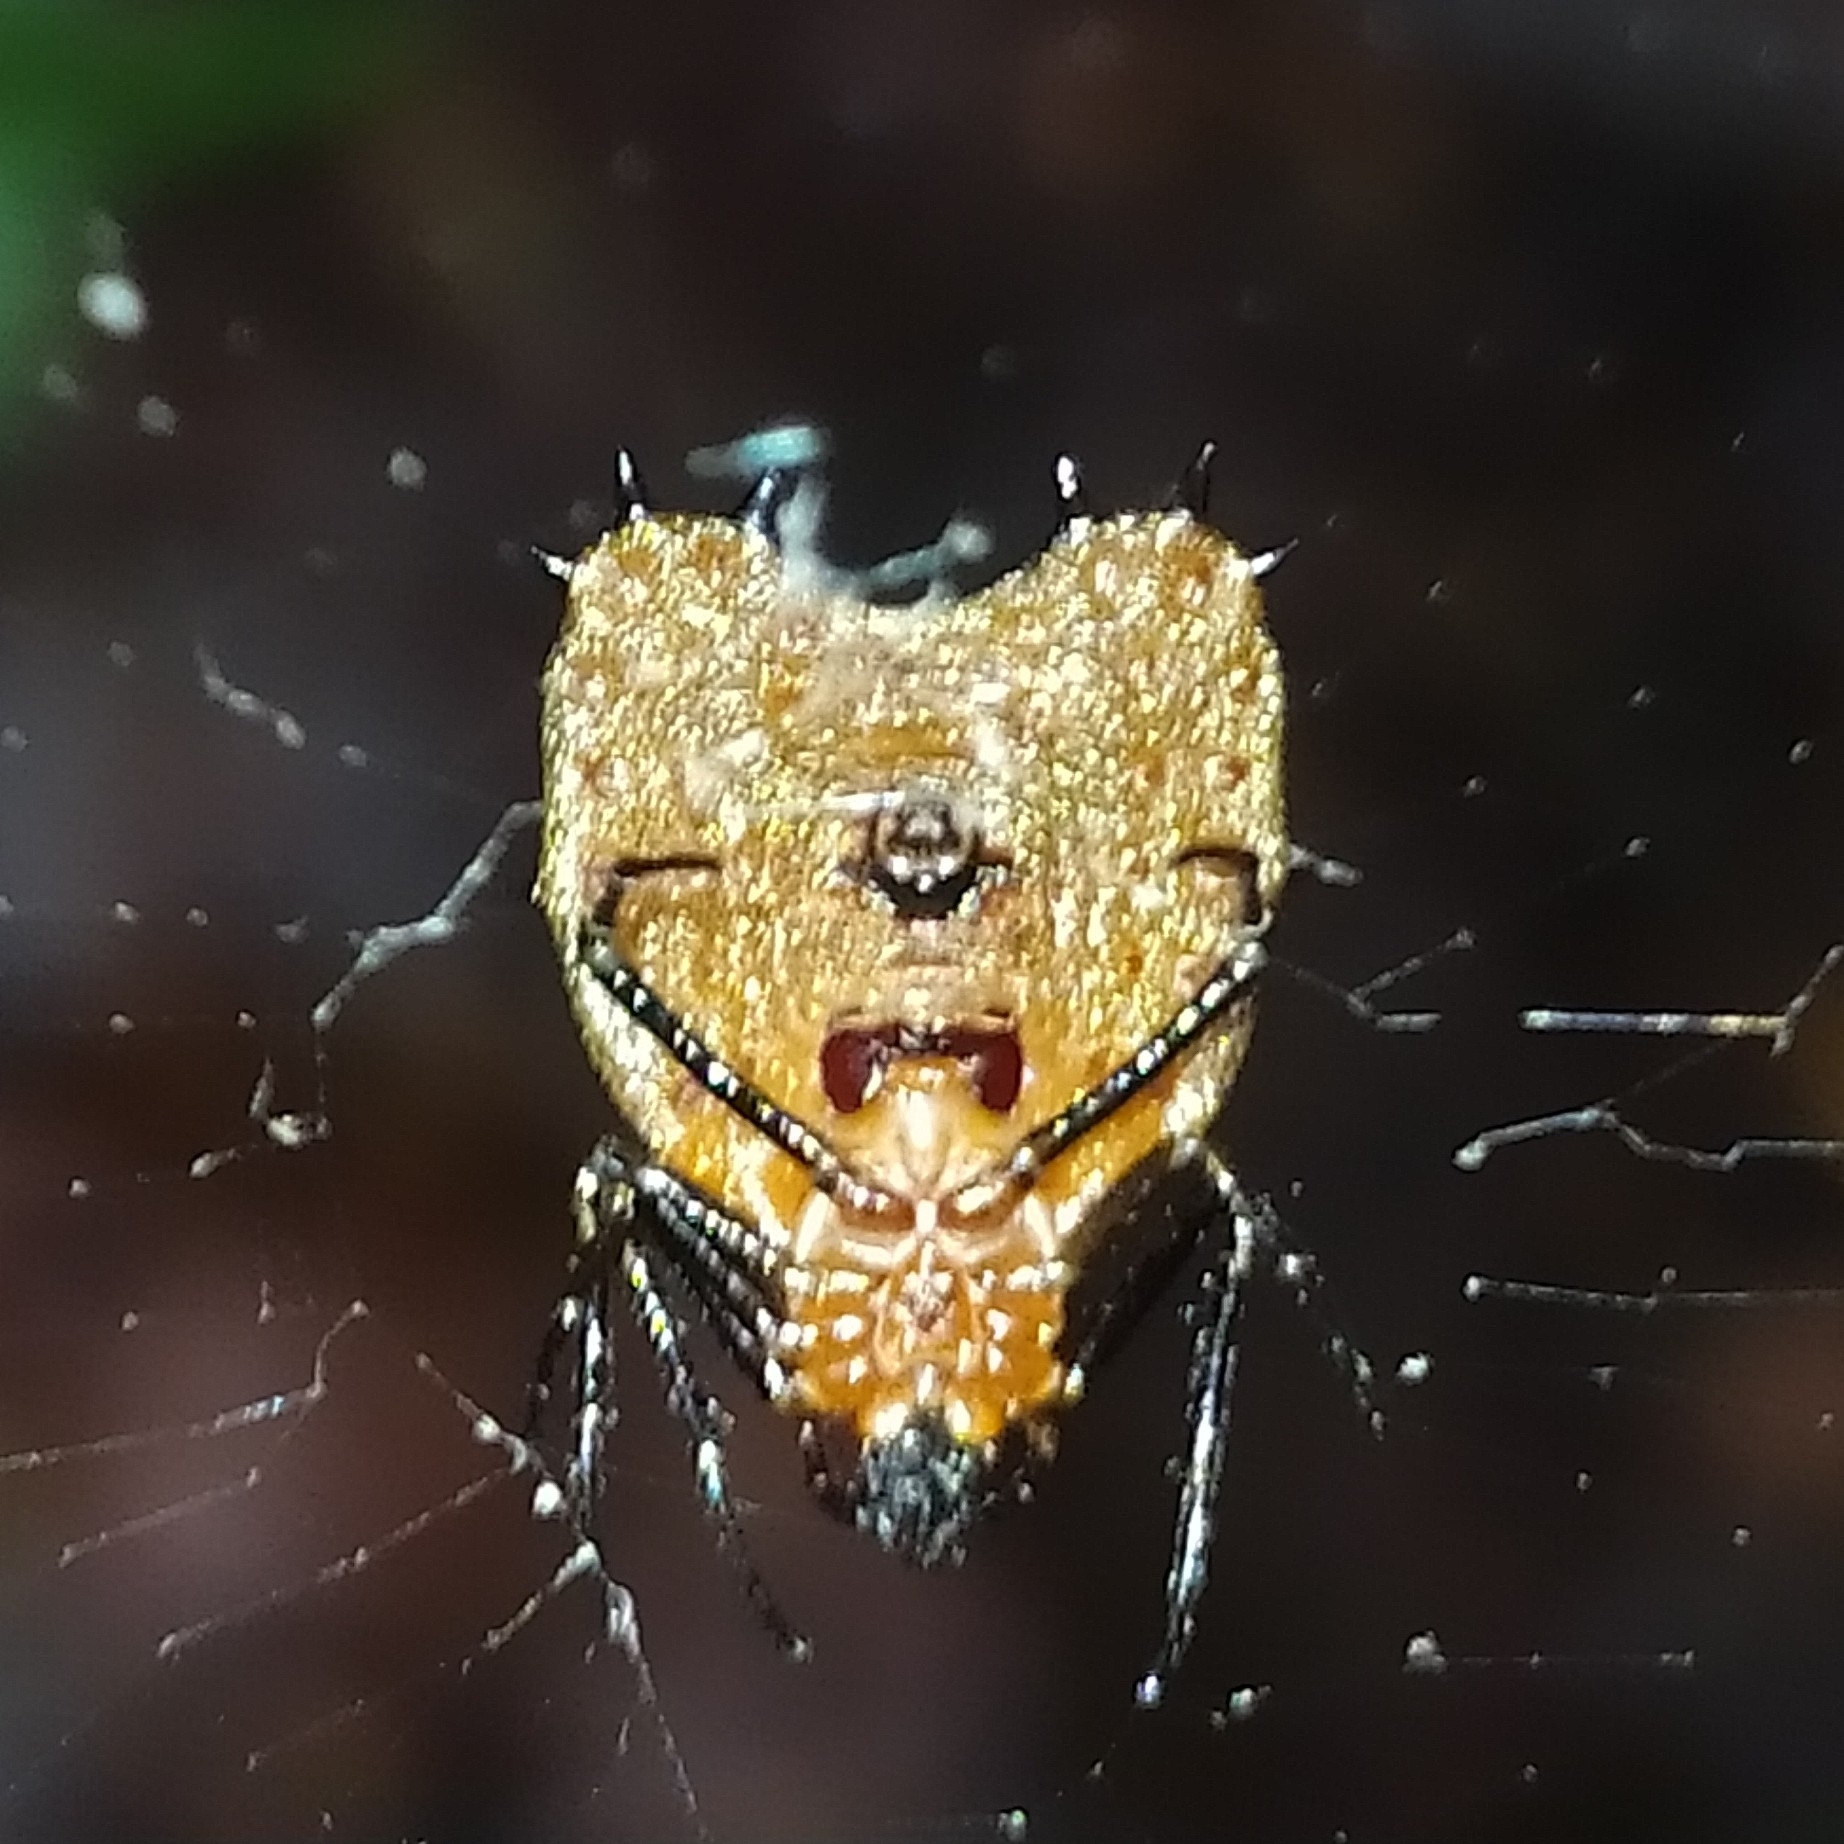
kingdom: Animalia
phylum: Arthropoda
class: Arachnida
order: Araneae
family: Araneidae
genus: Micrathena
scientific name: Micrathena clypeata
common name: Orb weavers
